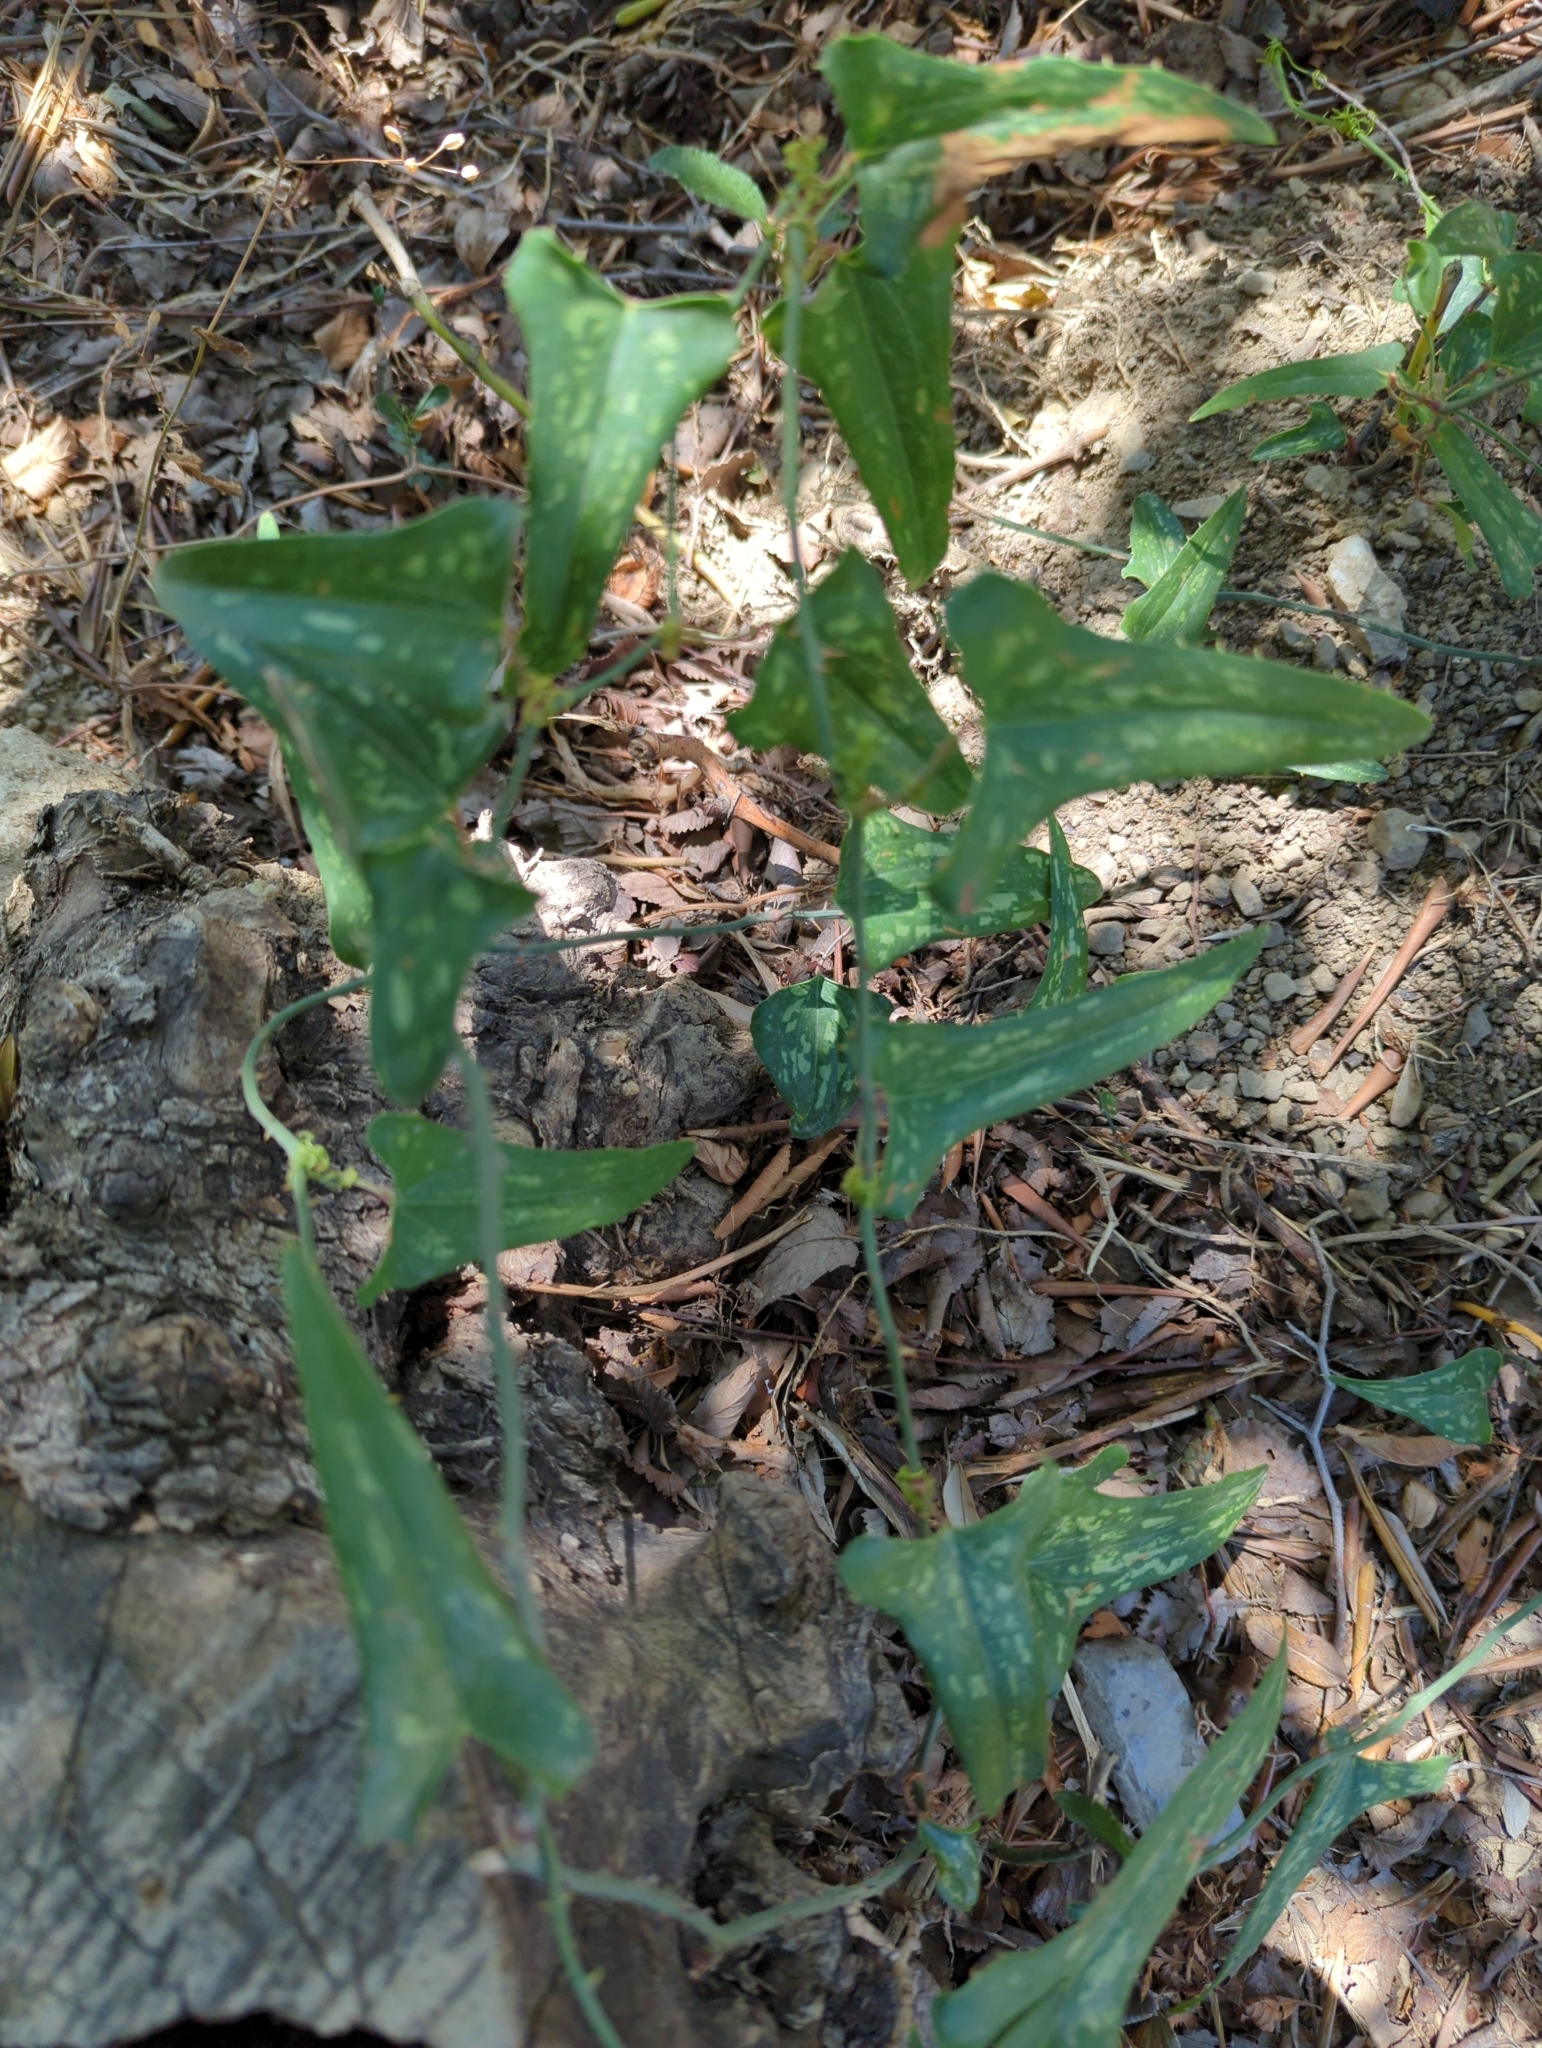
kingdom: Plantae
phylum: Tracheophyta
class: Liliopsida
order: Liliales
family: Smilacaceae
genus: Smilax
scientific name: Smilax aspera
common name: Common smilax
